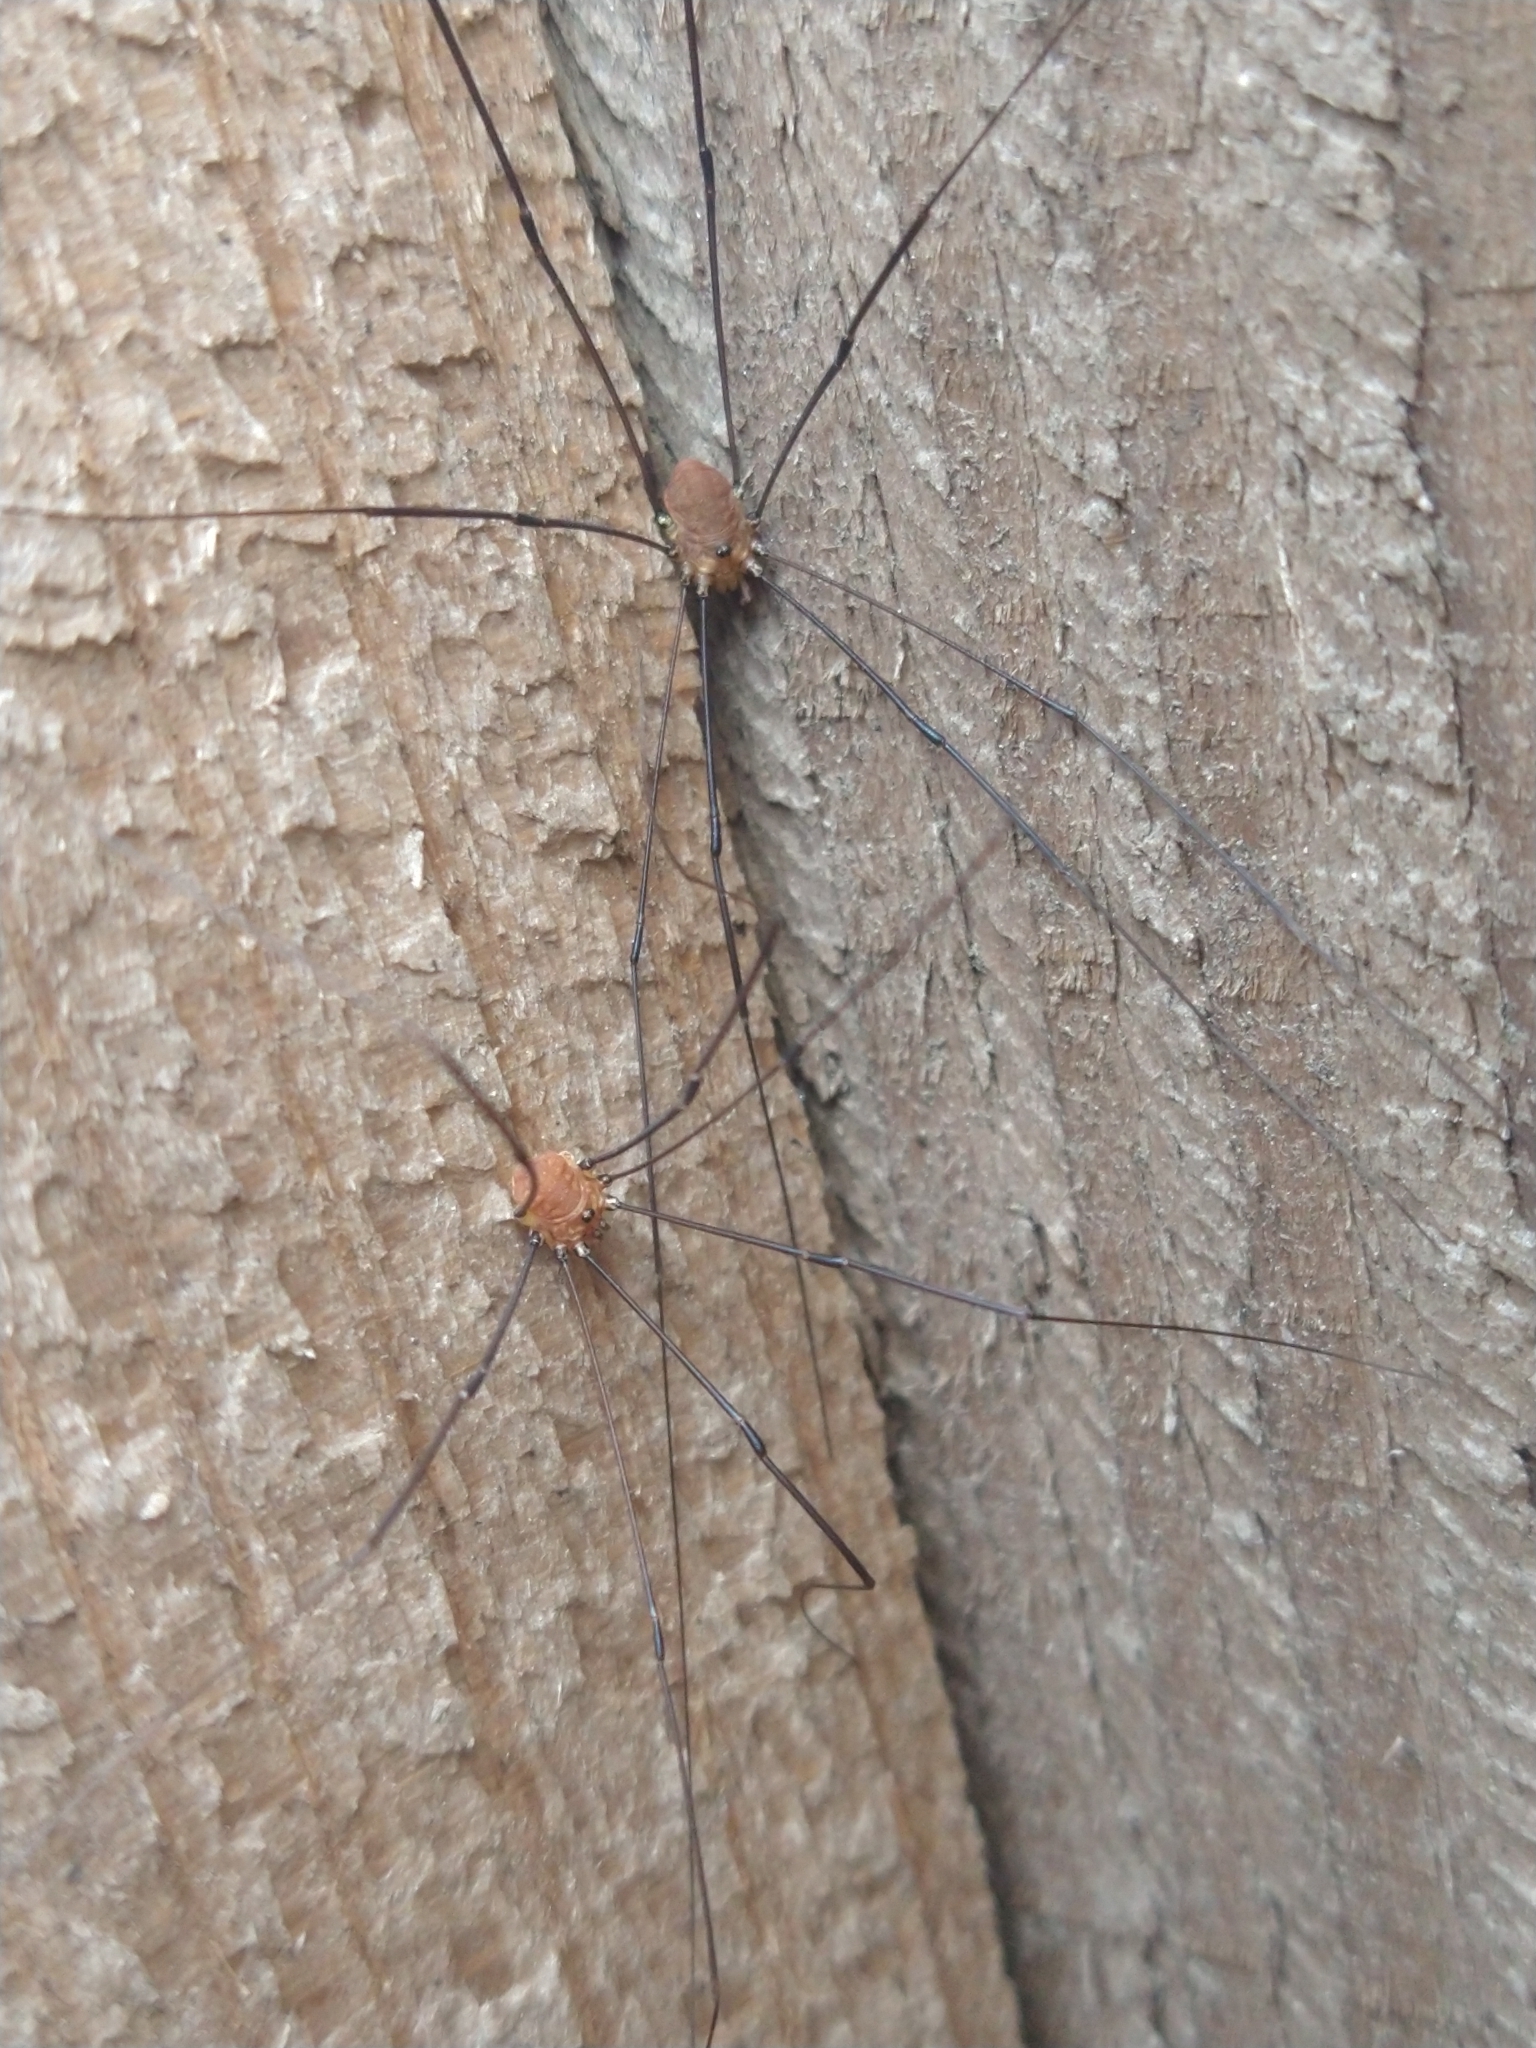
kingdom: Animalia
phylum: Arthropoda
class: Arachnida
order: Opiliones
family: Sclerosomatidae
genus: Leiobunum
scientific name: Leiobunum rotundum
